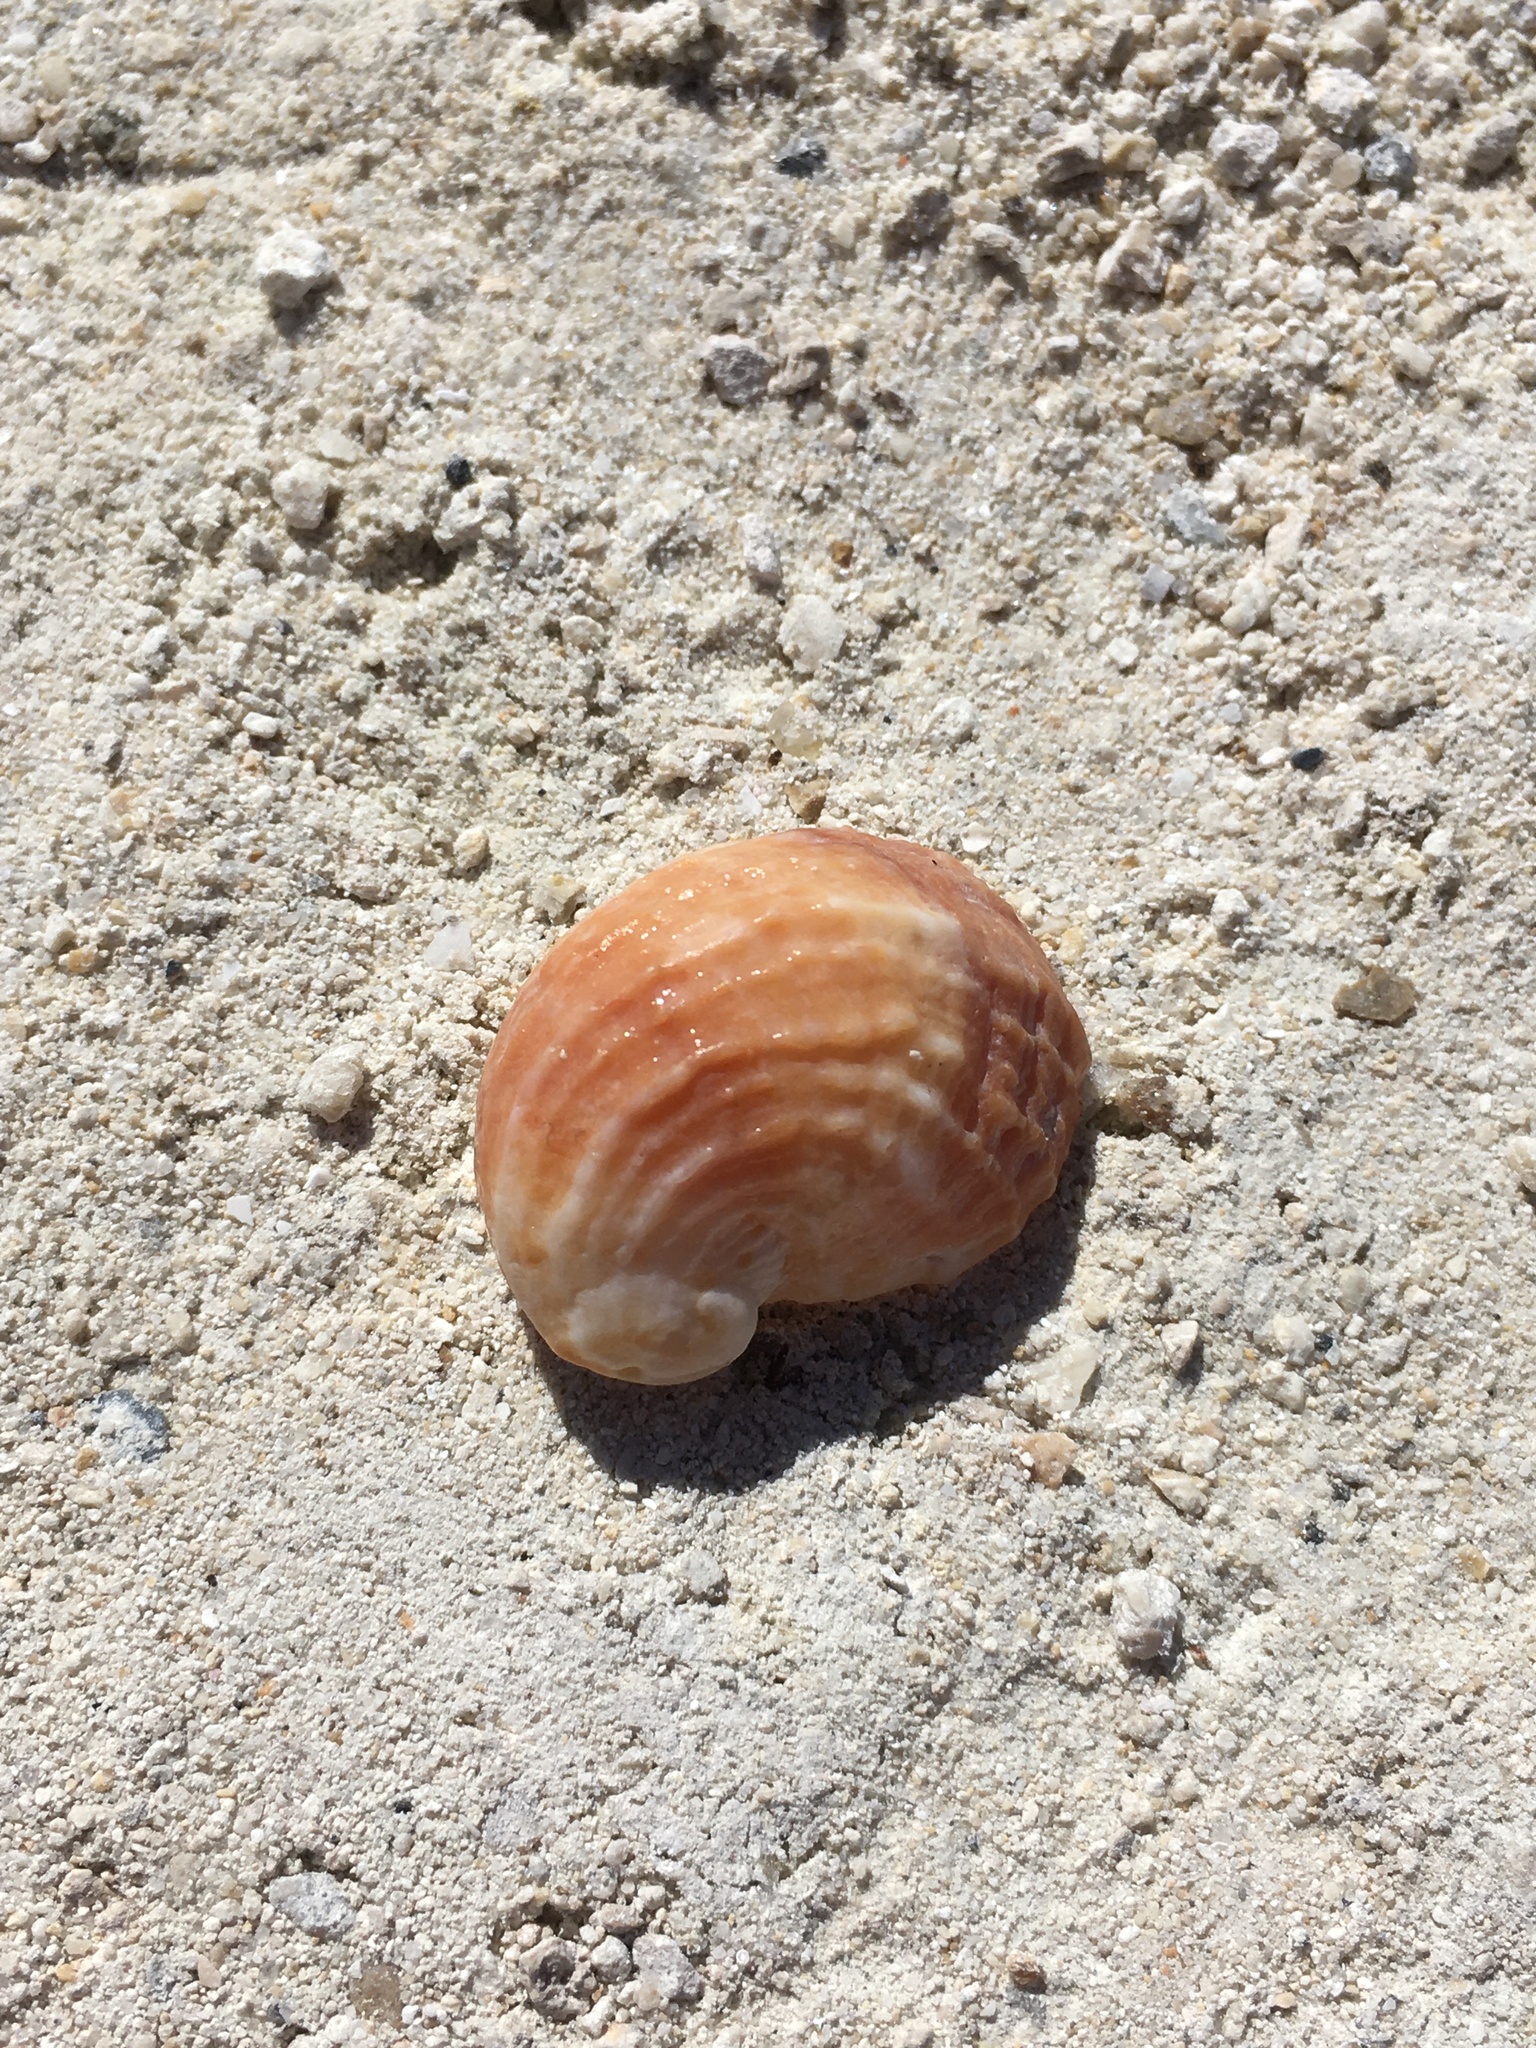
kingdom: Animalia
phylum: Mollusca
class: Gastropoda
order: Littorinimorpha
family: Calyptraeidae
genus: Bostrycapulus
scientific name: Bostrycapulus aculeatus
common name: Spiny slippersnail
